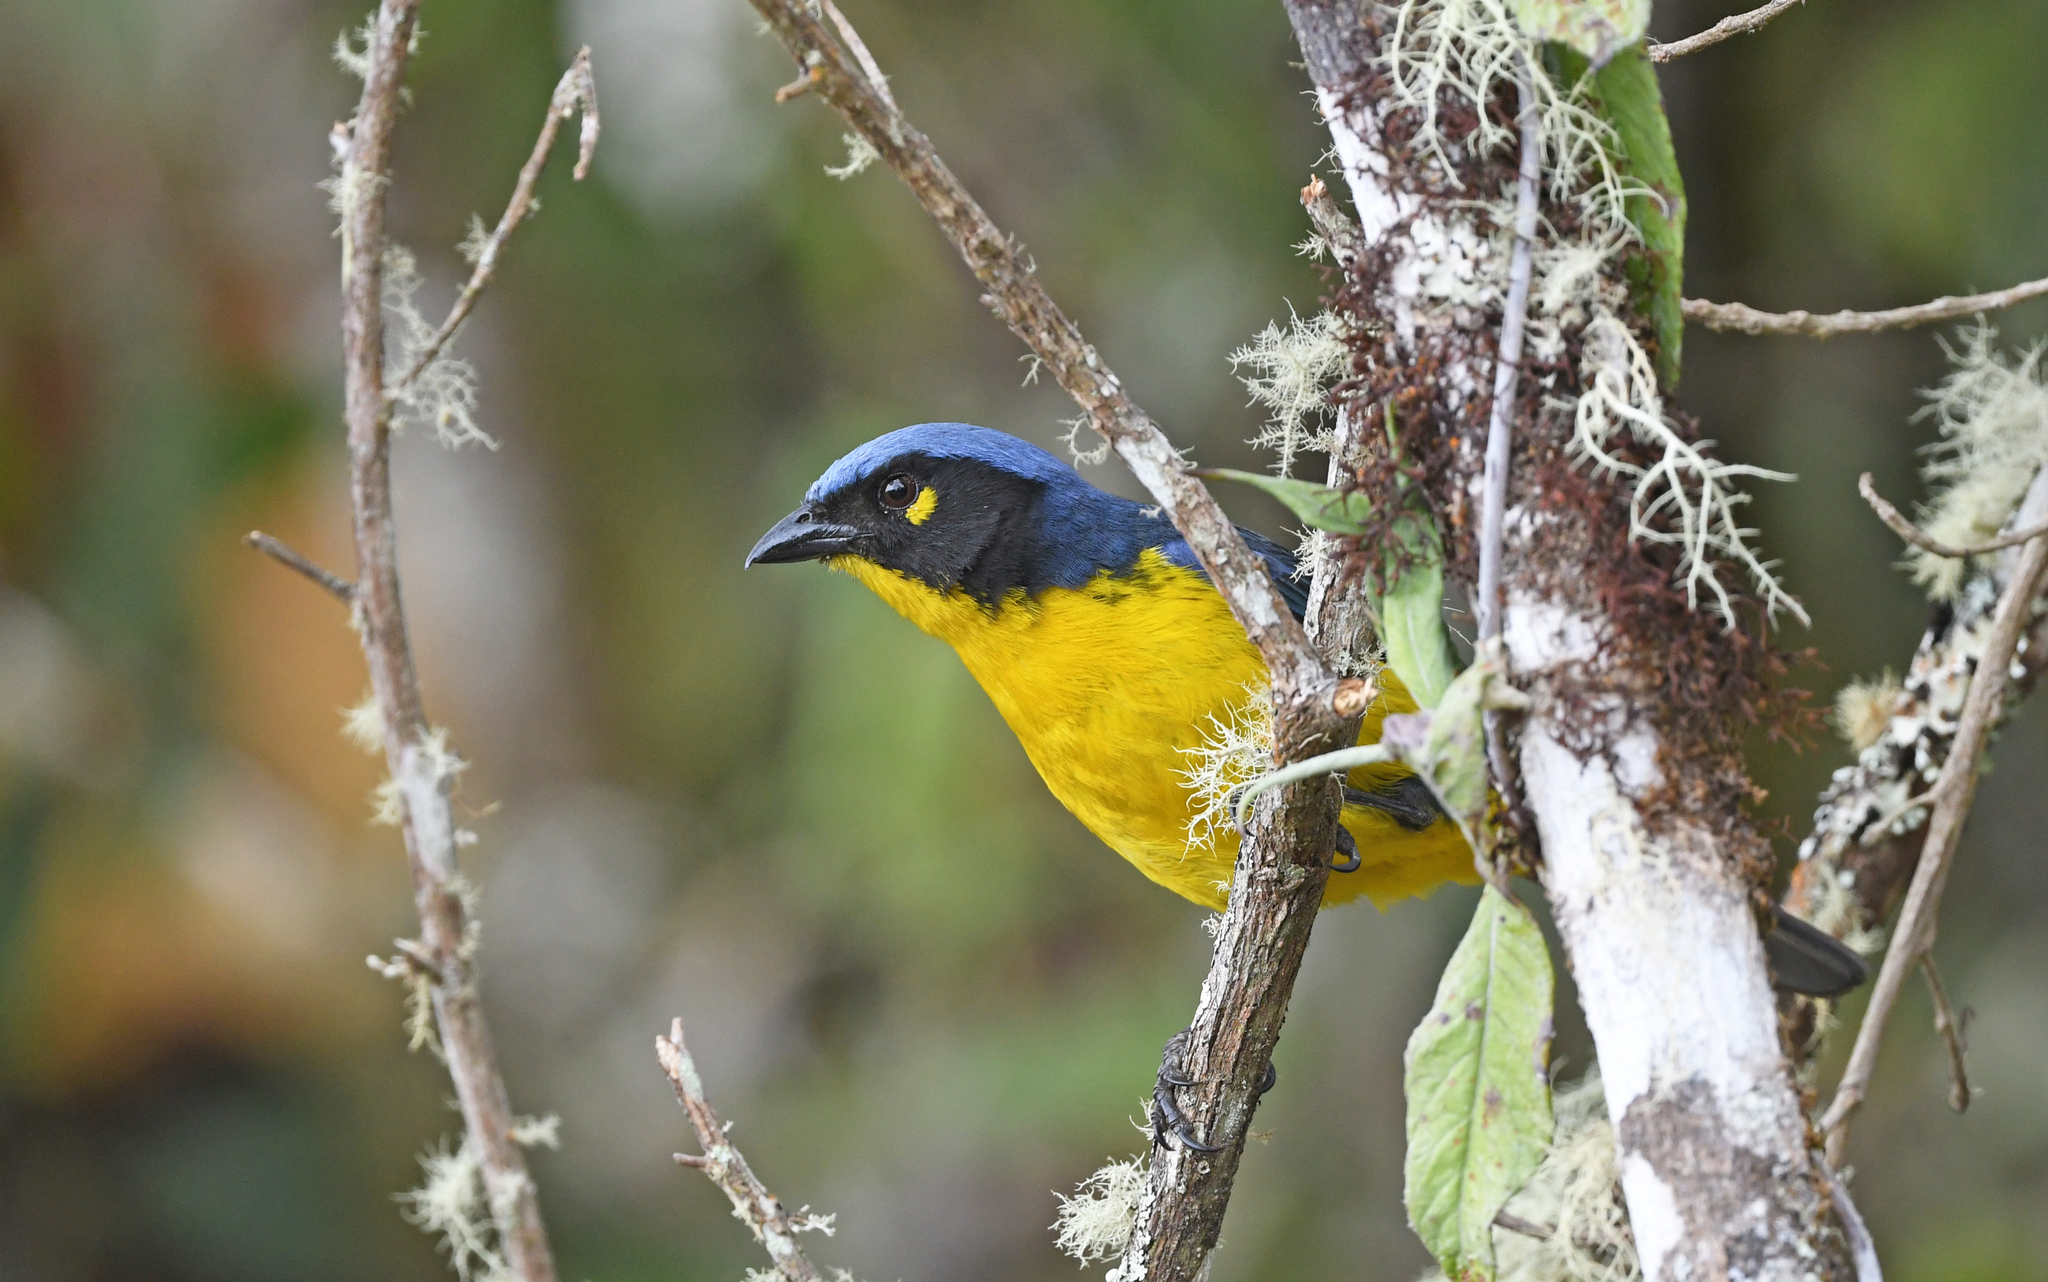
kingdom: Animalia
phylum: Chordata
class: Aves
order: Passeriformes
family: Thraupidae
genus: Anisognathus
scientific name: Anisognathus melanogenys
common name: Santa marta mountain tanager
